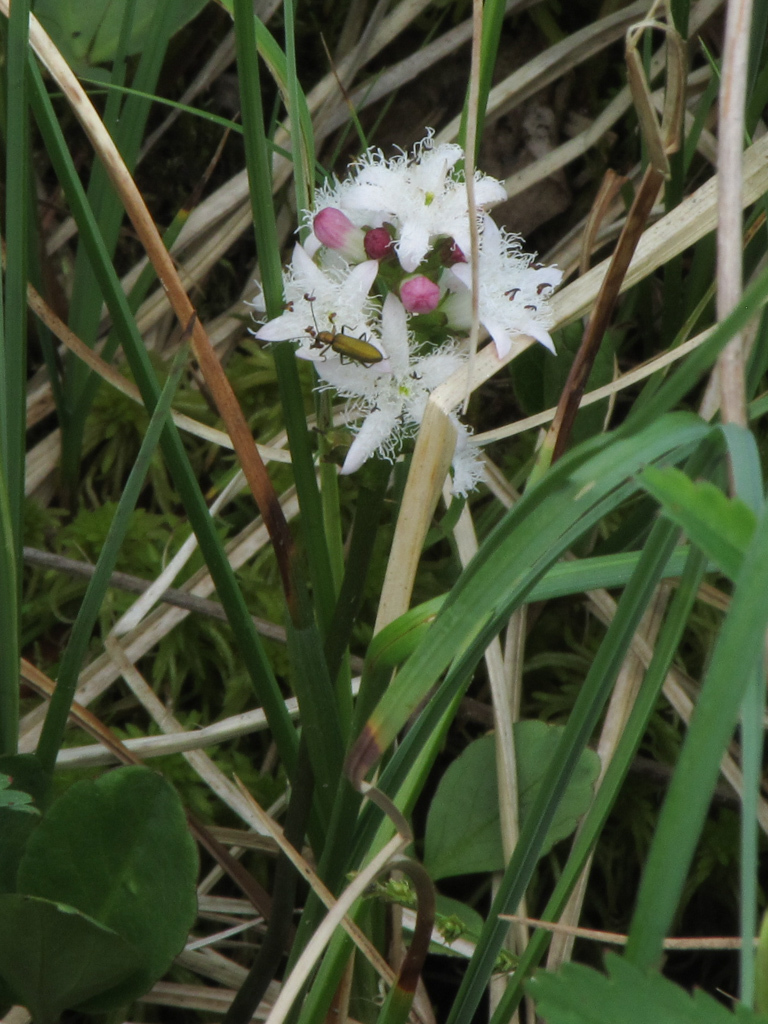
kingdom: Plantae
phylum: Tracheophyta
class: Magnoliopsida
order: Asterales
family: Menyanthaceae
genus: Menyanthes
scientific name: Menyanthes trifoliata
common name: Bogbean
